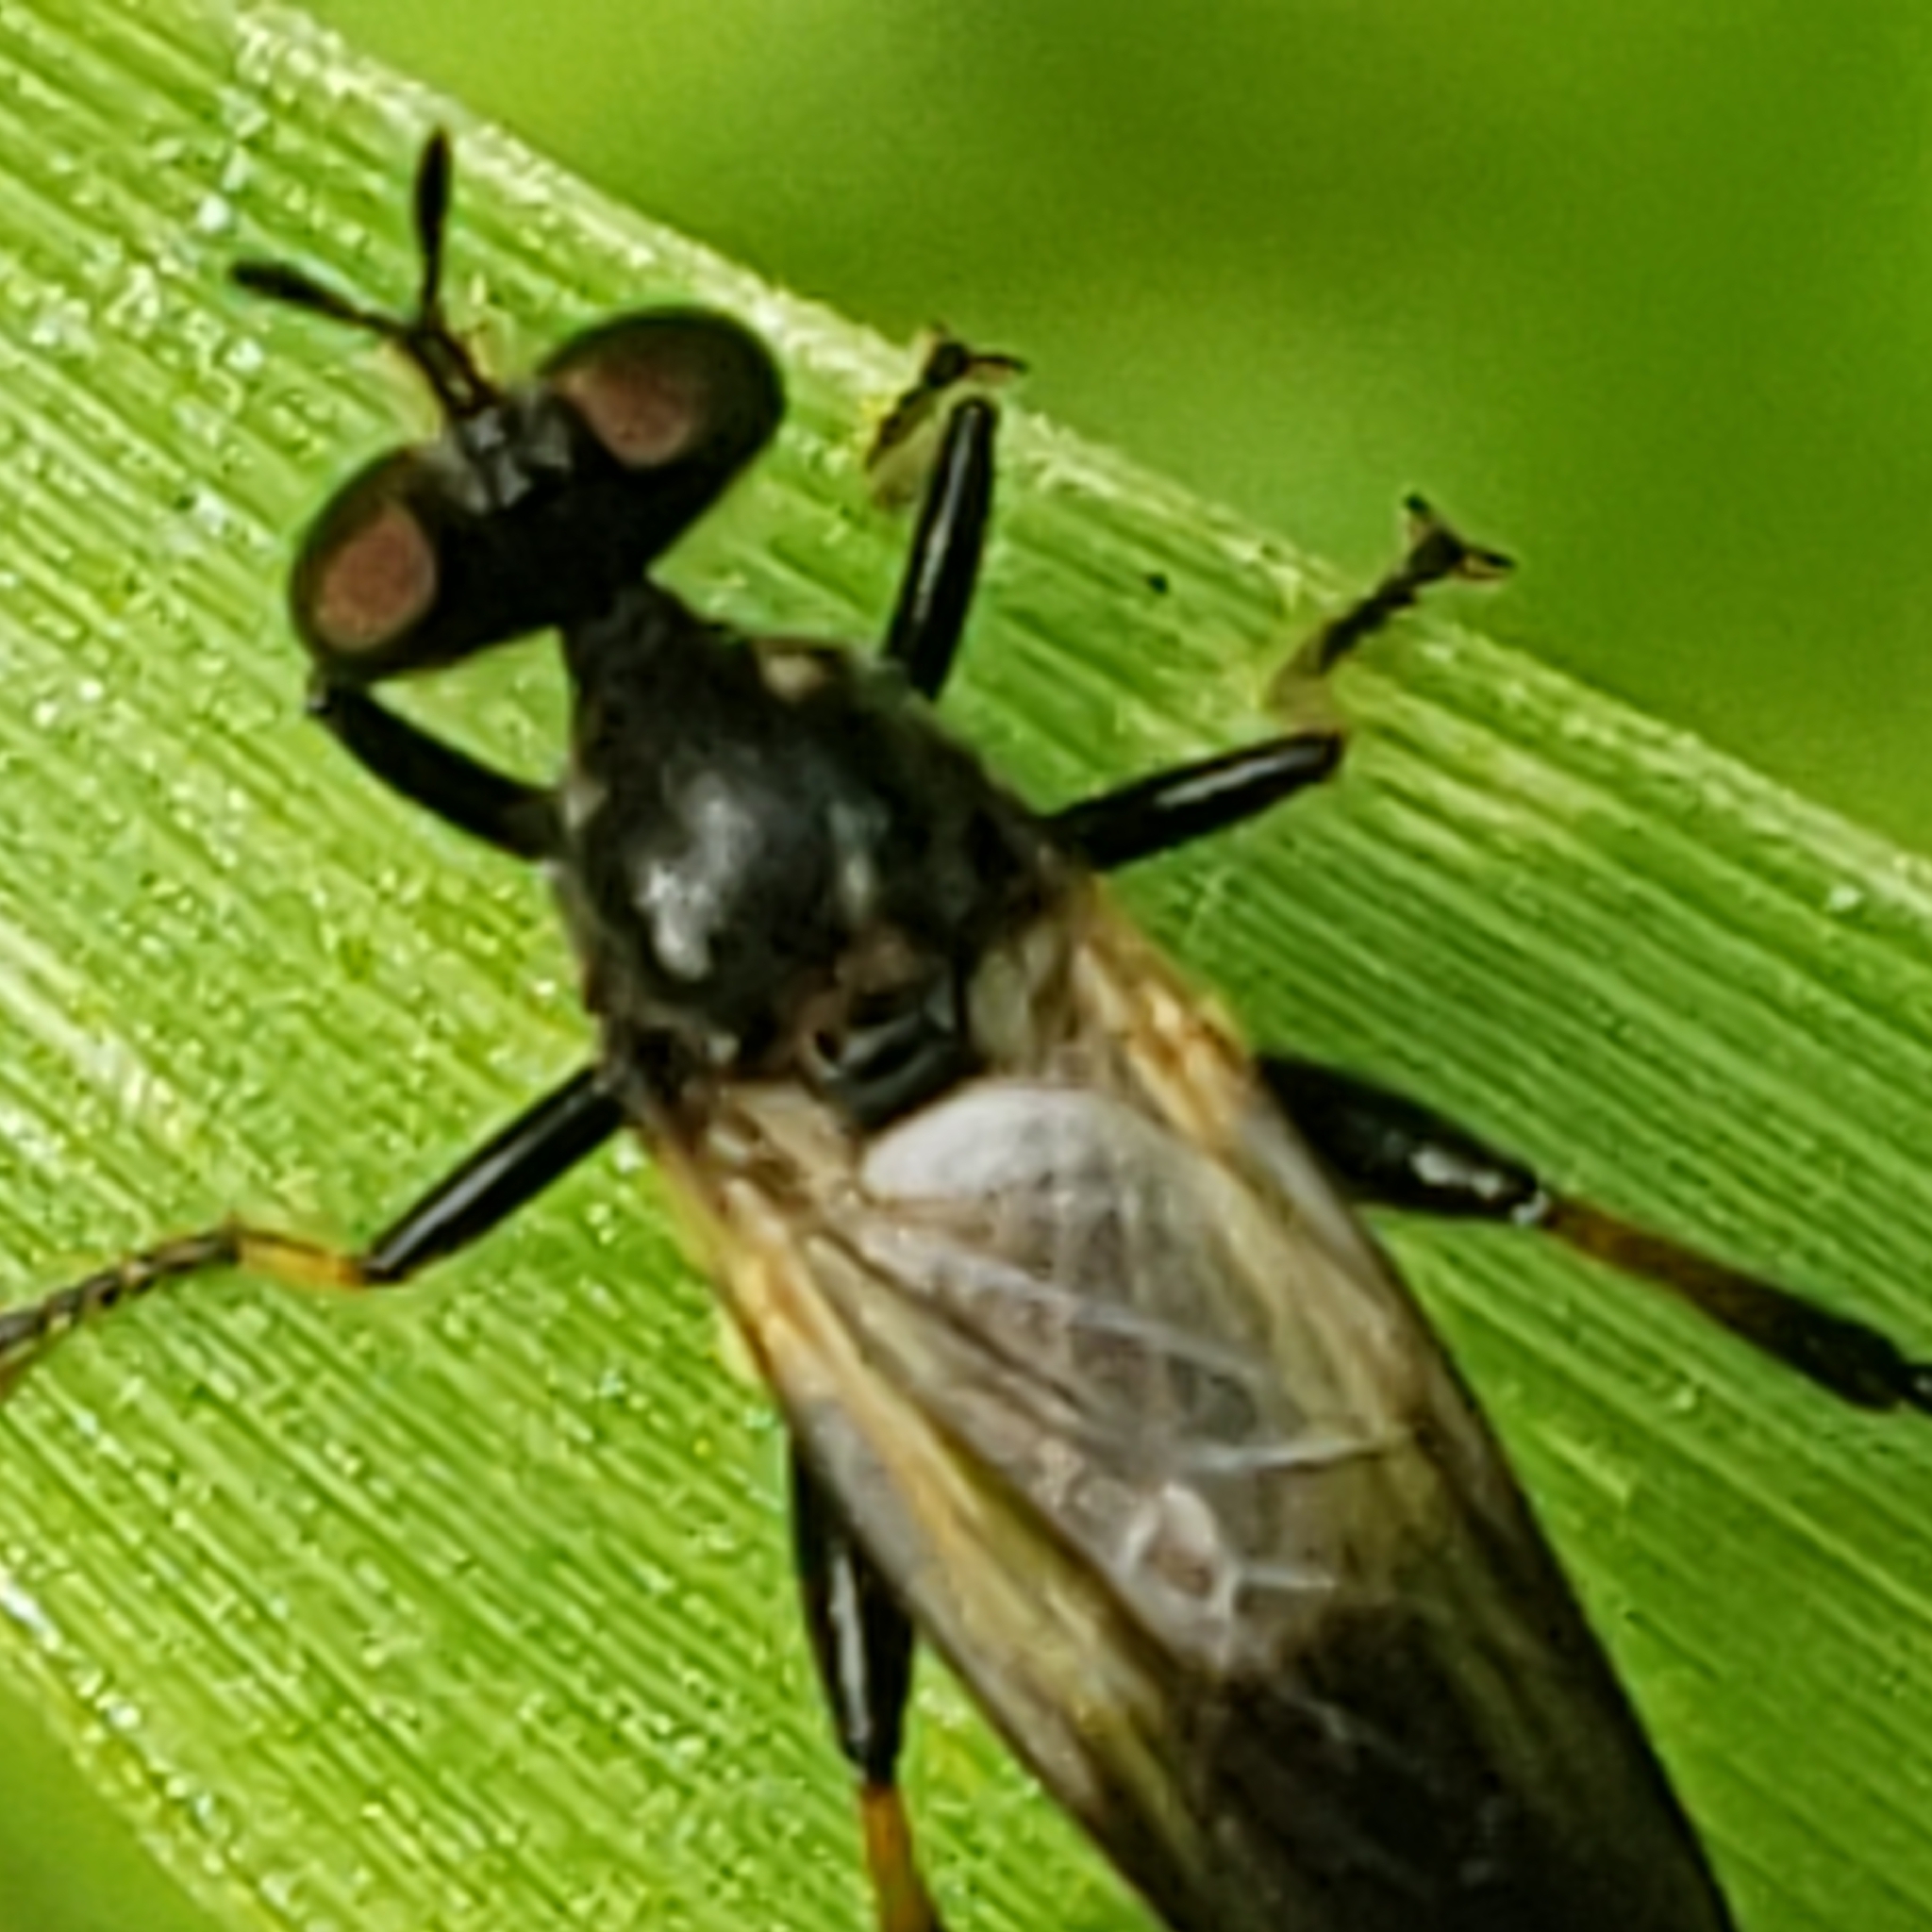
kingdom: Animalia
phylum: Arthropoda
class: Insecta
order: Diptera
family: Asilidae
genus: Eudioctria
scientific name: Eudioctria albius
